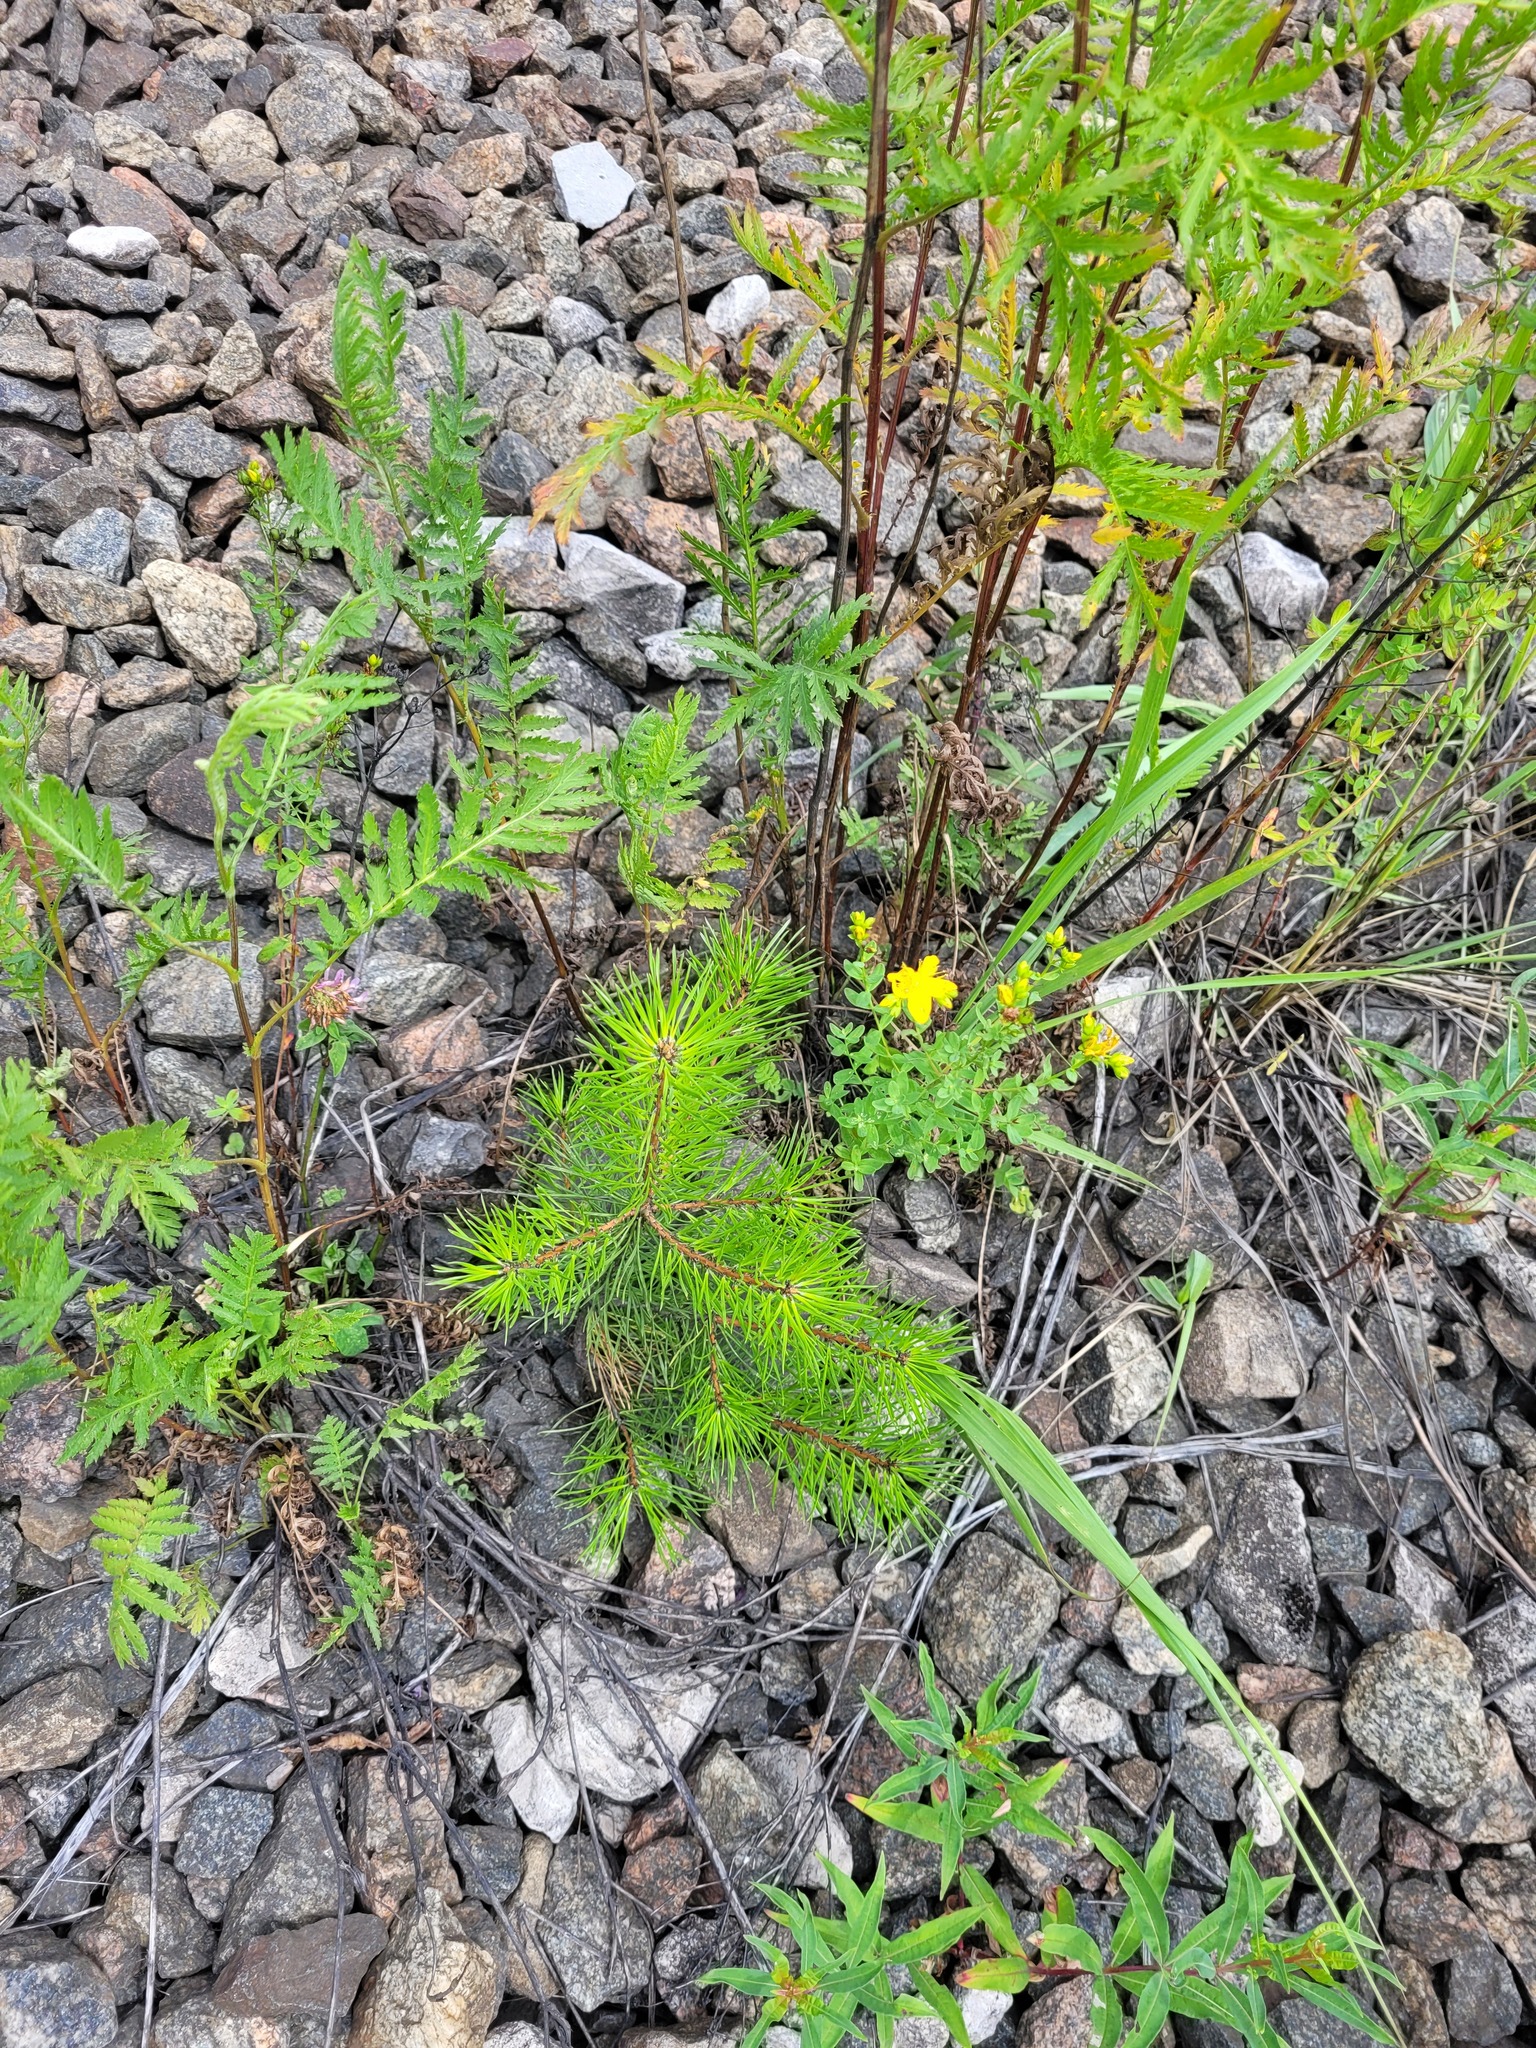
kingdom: Plantae
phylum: Tracheophyta
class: Pinopsida
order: Pinales
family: Pinaceae
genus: Pinus
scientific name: Pinus sylvestris
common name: Scots pine
